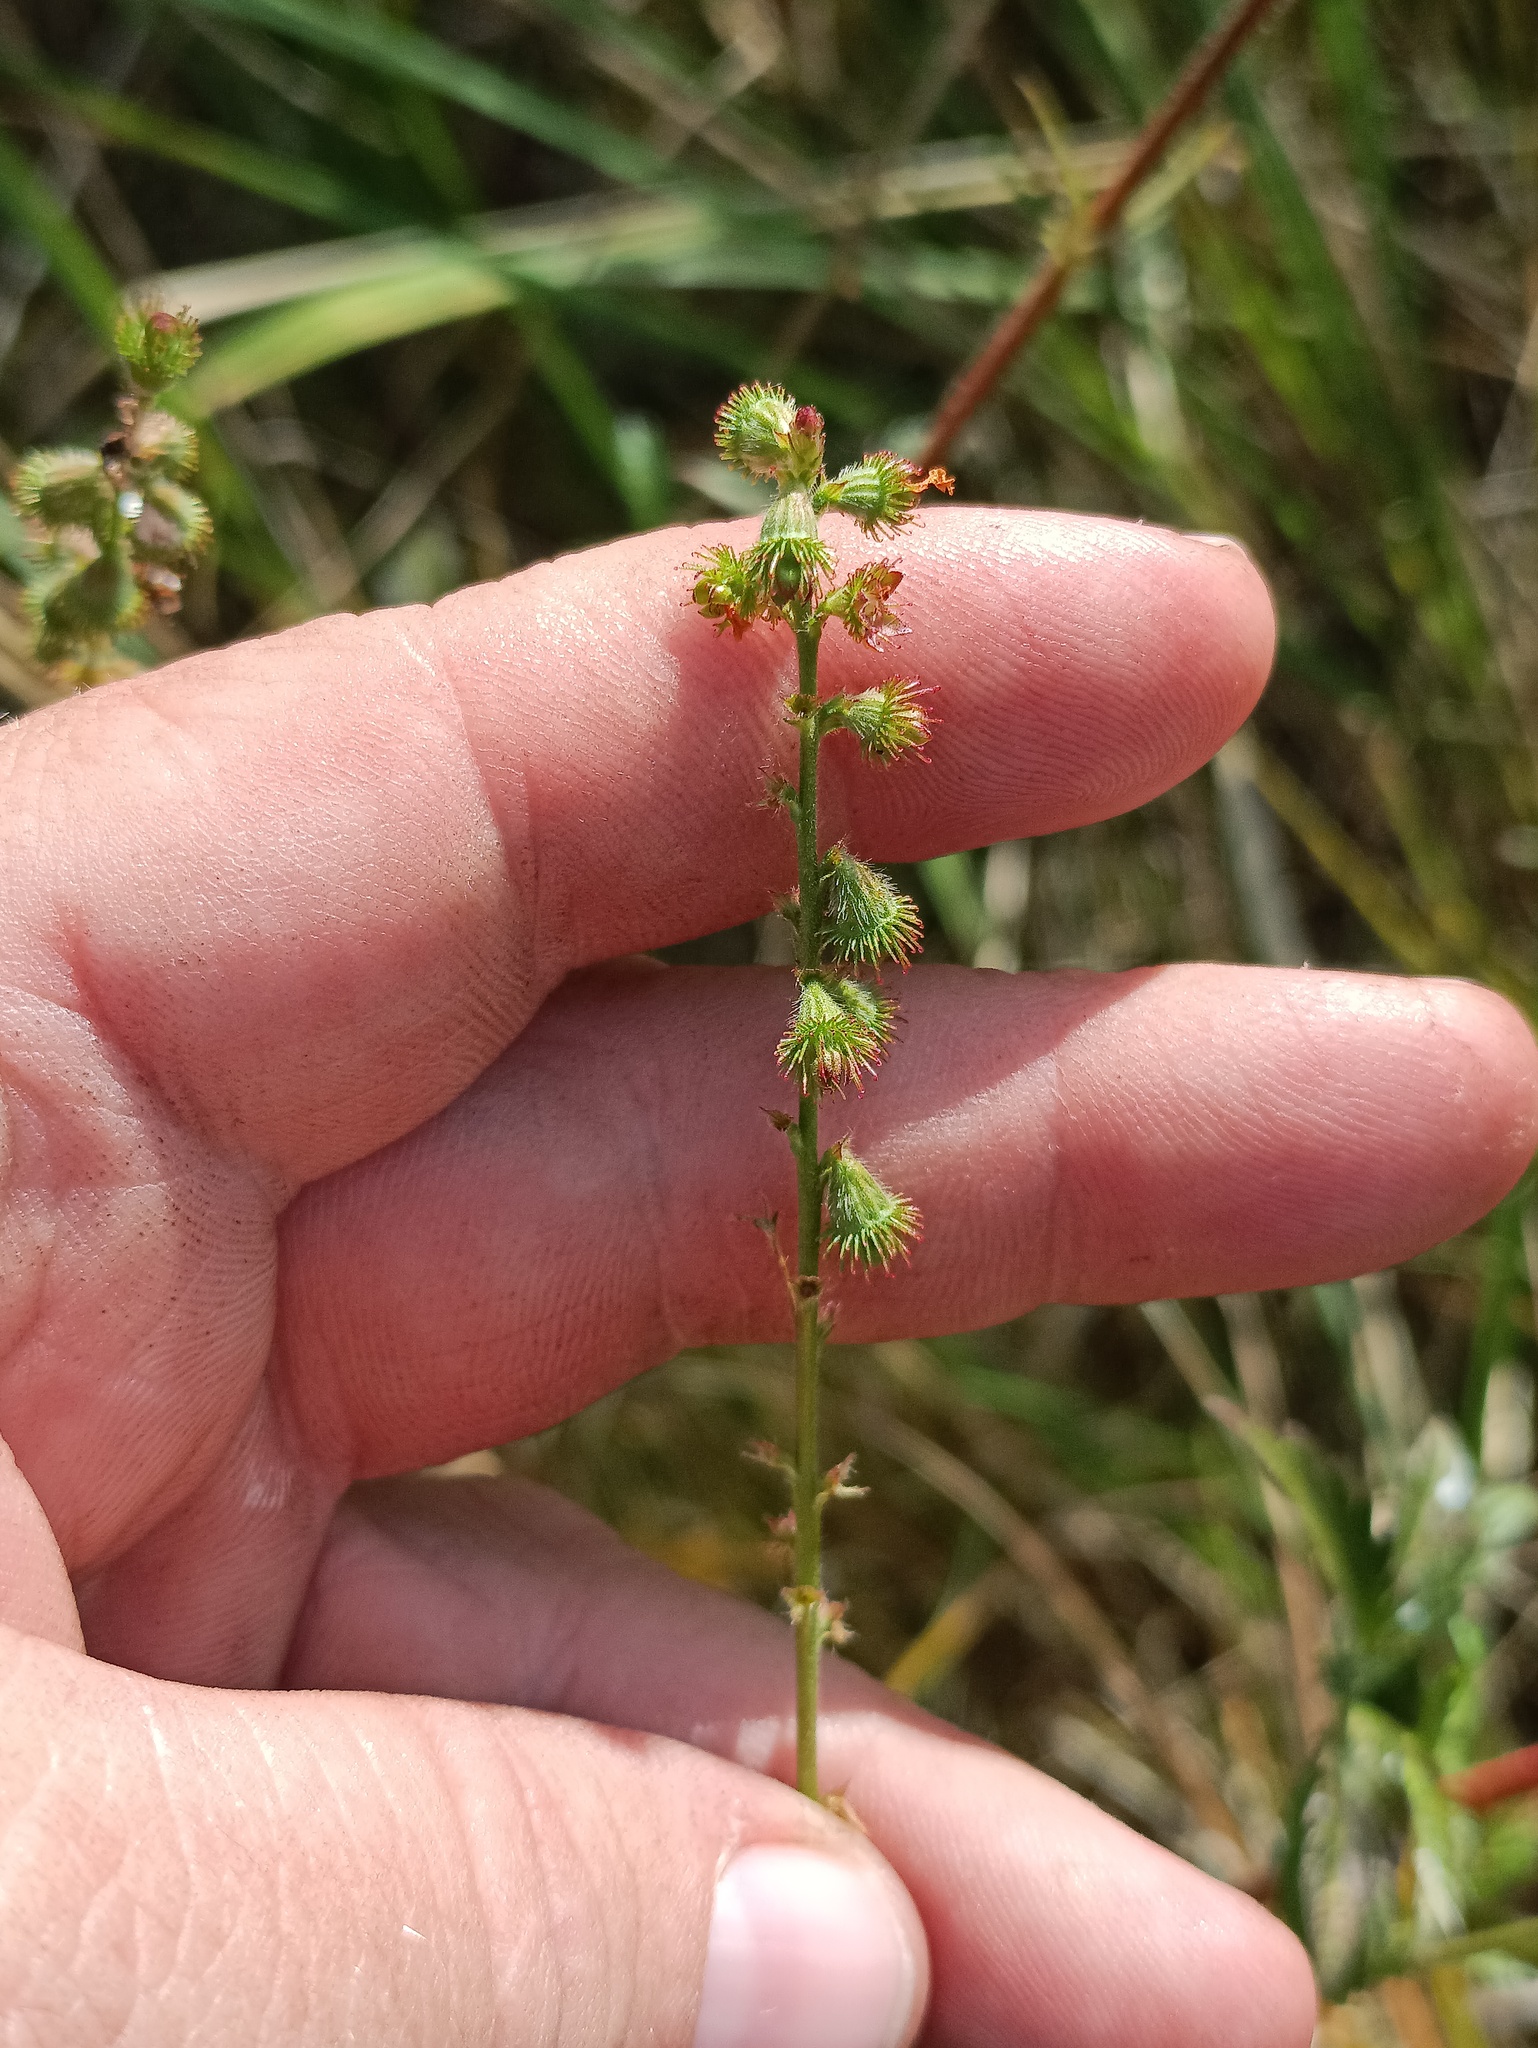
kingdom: Plantae
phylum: Tracheophyta
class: Magnoliopsida
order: Rosales
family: Rosaceae
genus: Agrimonia
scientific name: Agrimonia eupatoria
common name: Agrimony
